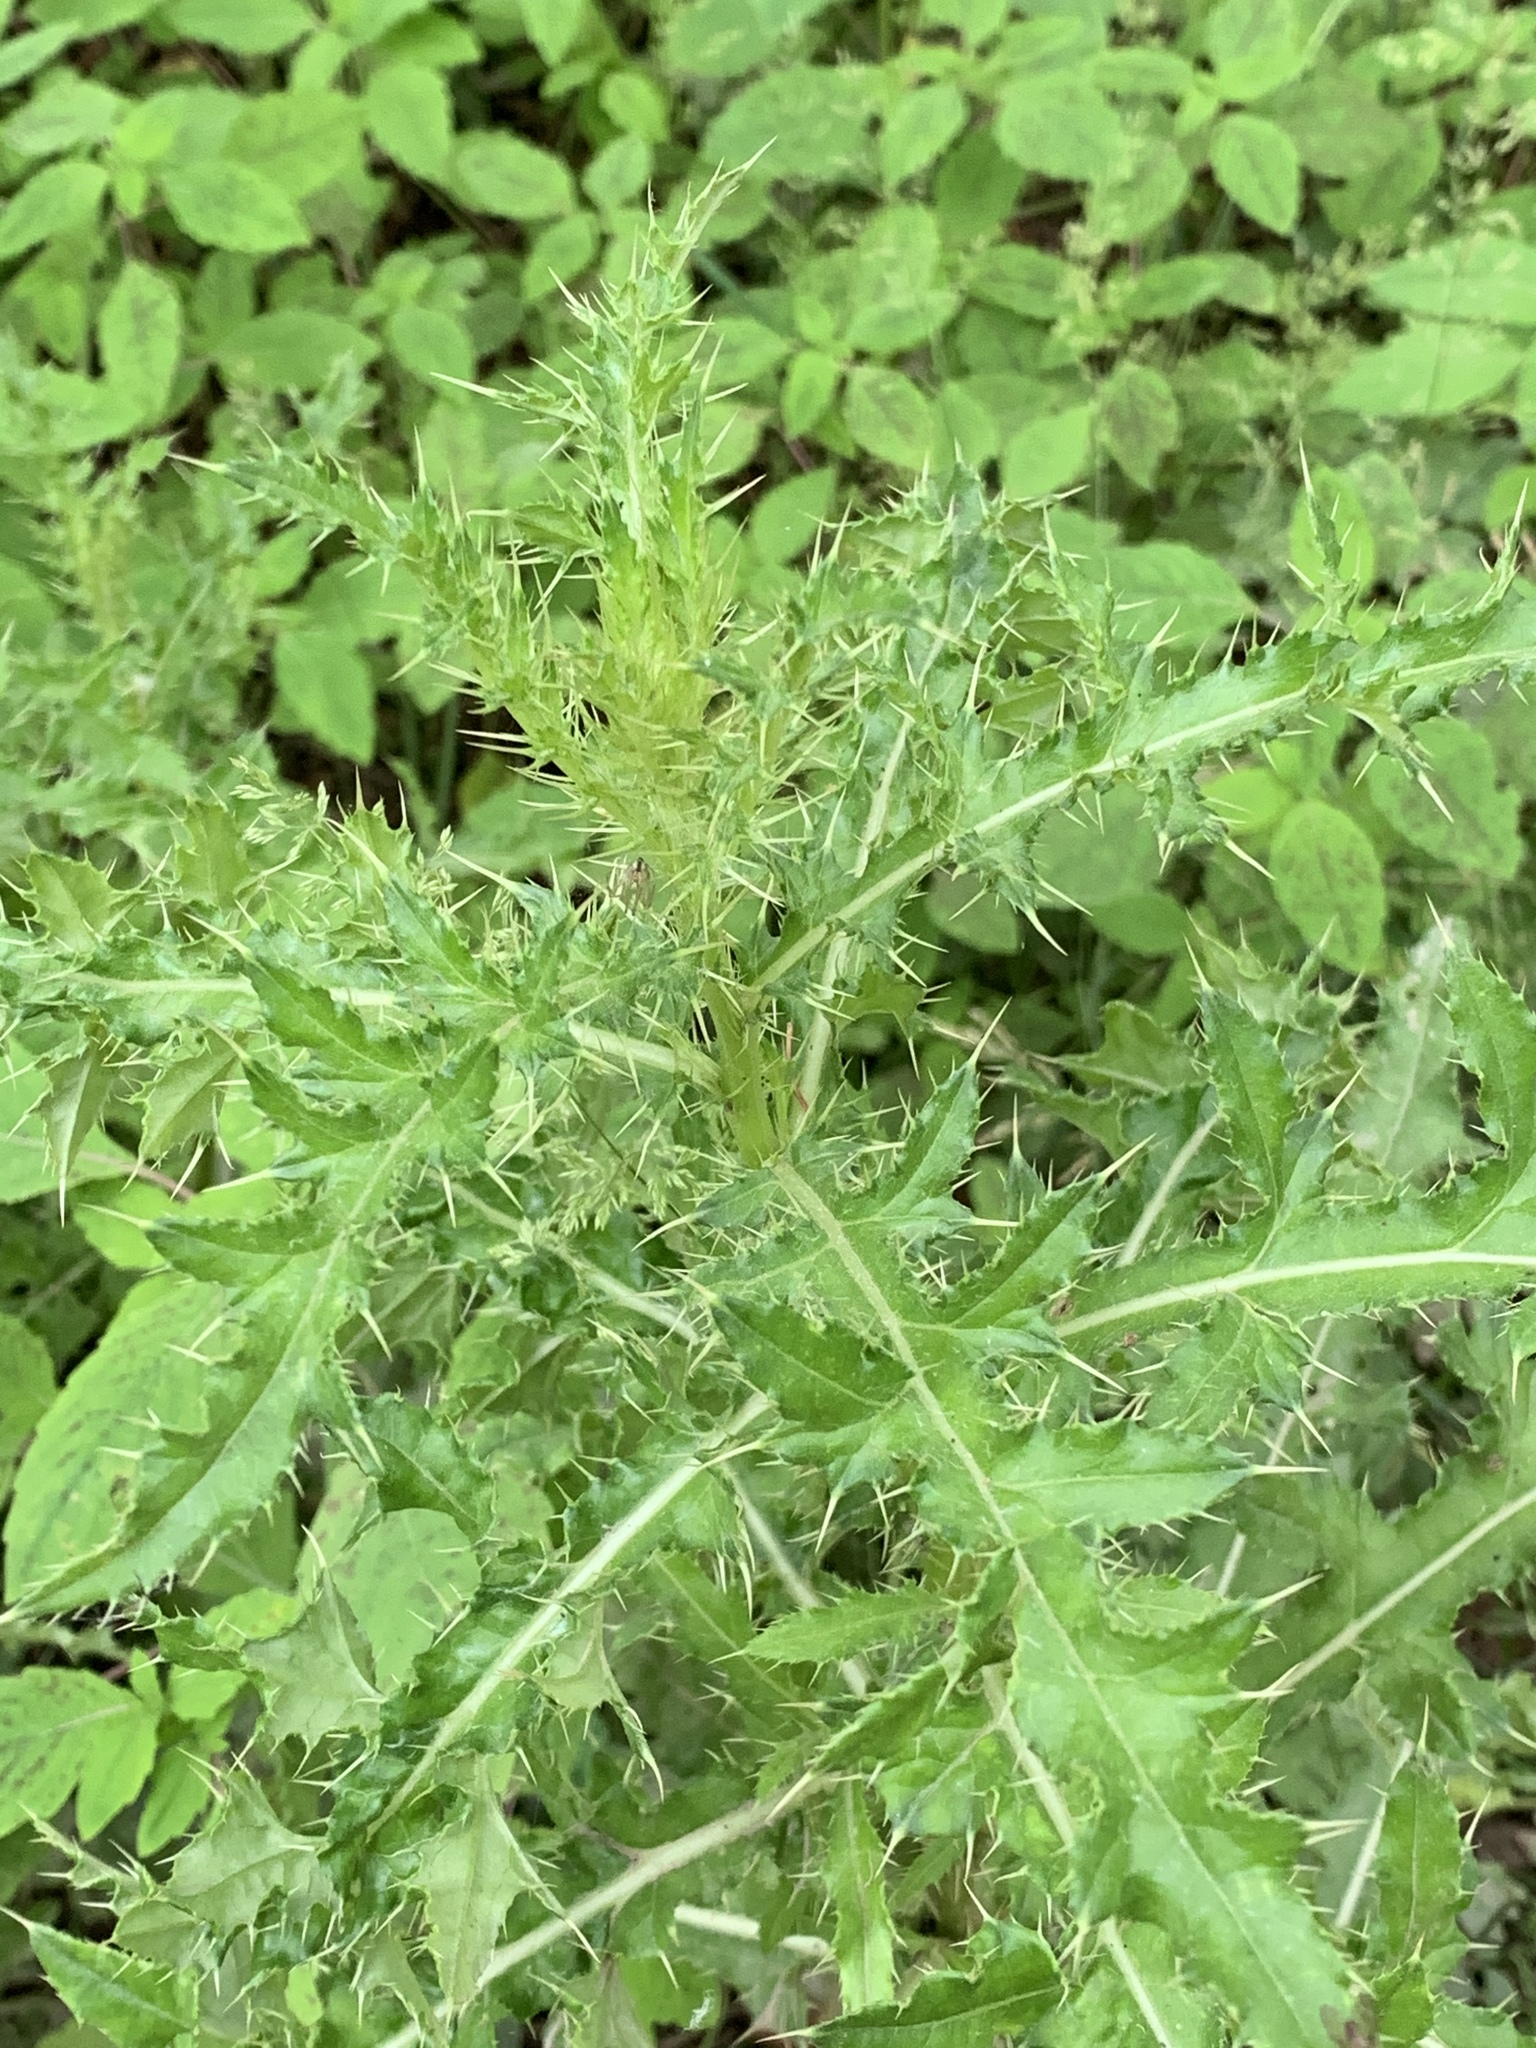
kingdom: Plantae
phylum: Tracheophyta
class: Magnoliopsida
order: Asterales
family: Asteraceae
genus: Cirsium
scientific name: Cirsium arvense
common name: Creeping thistle
